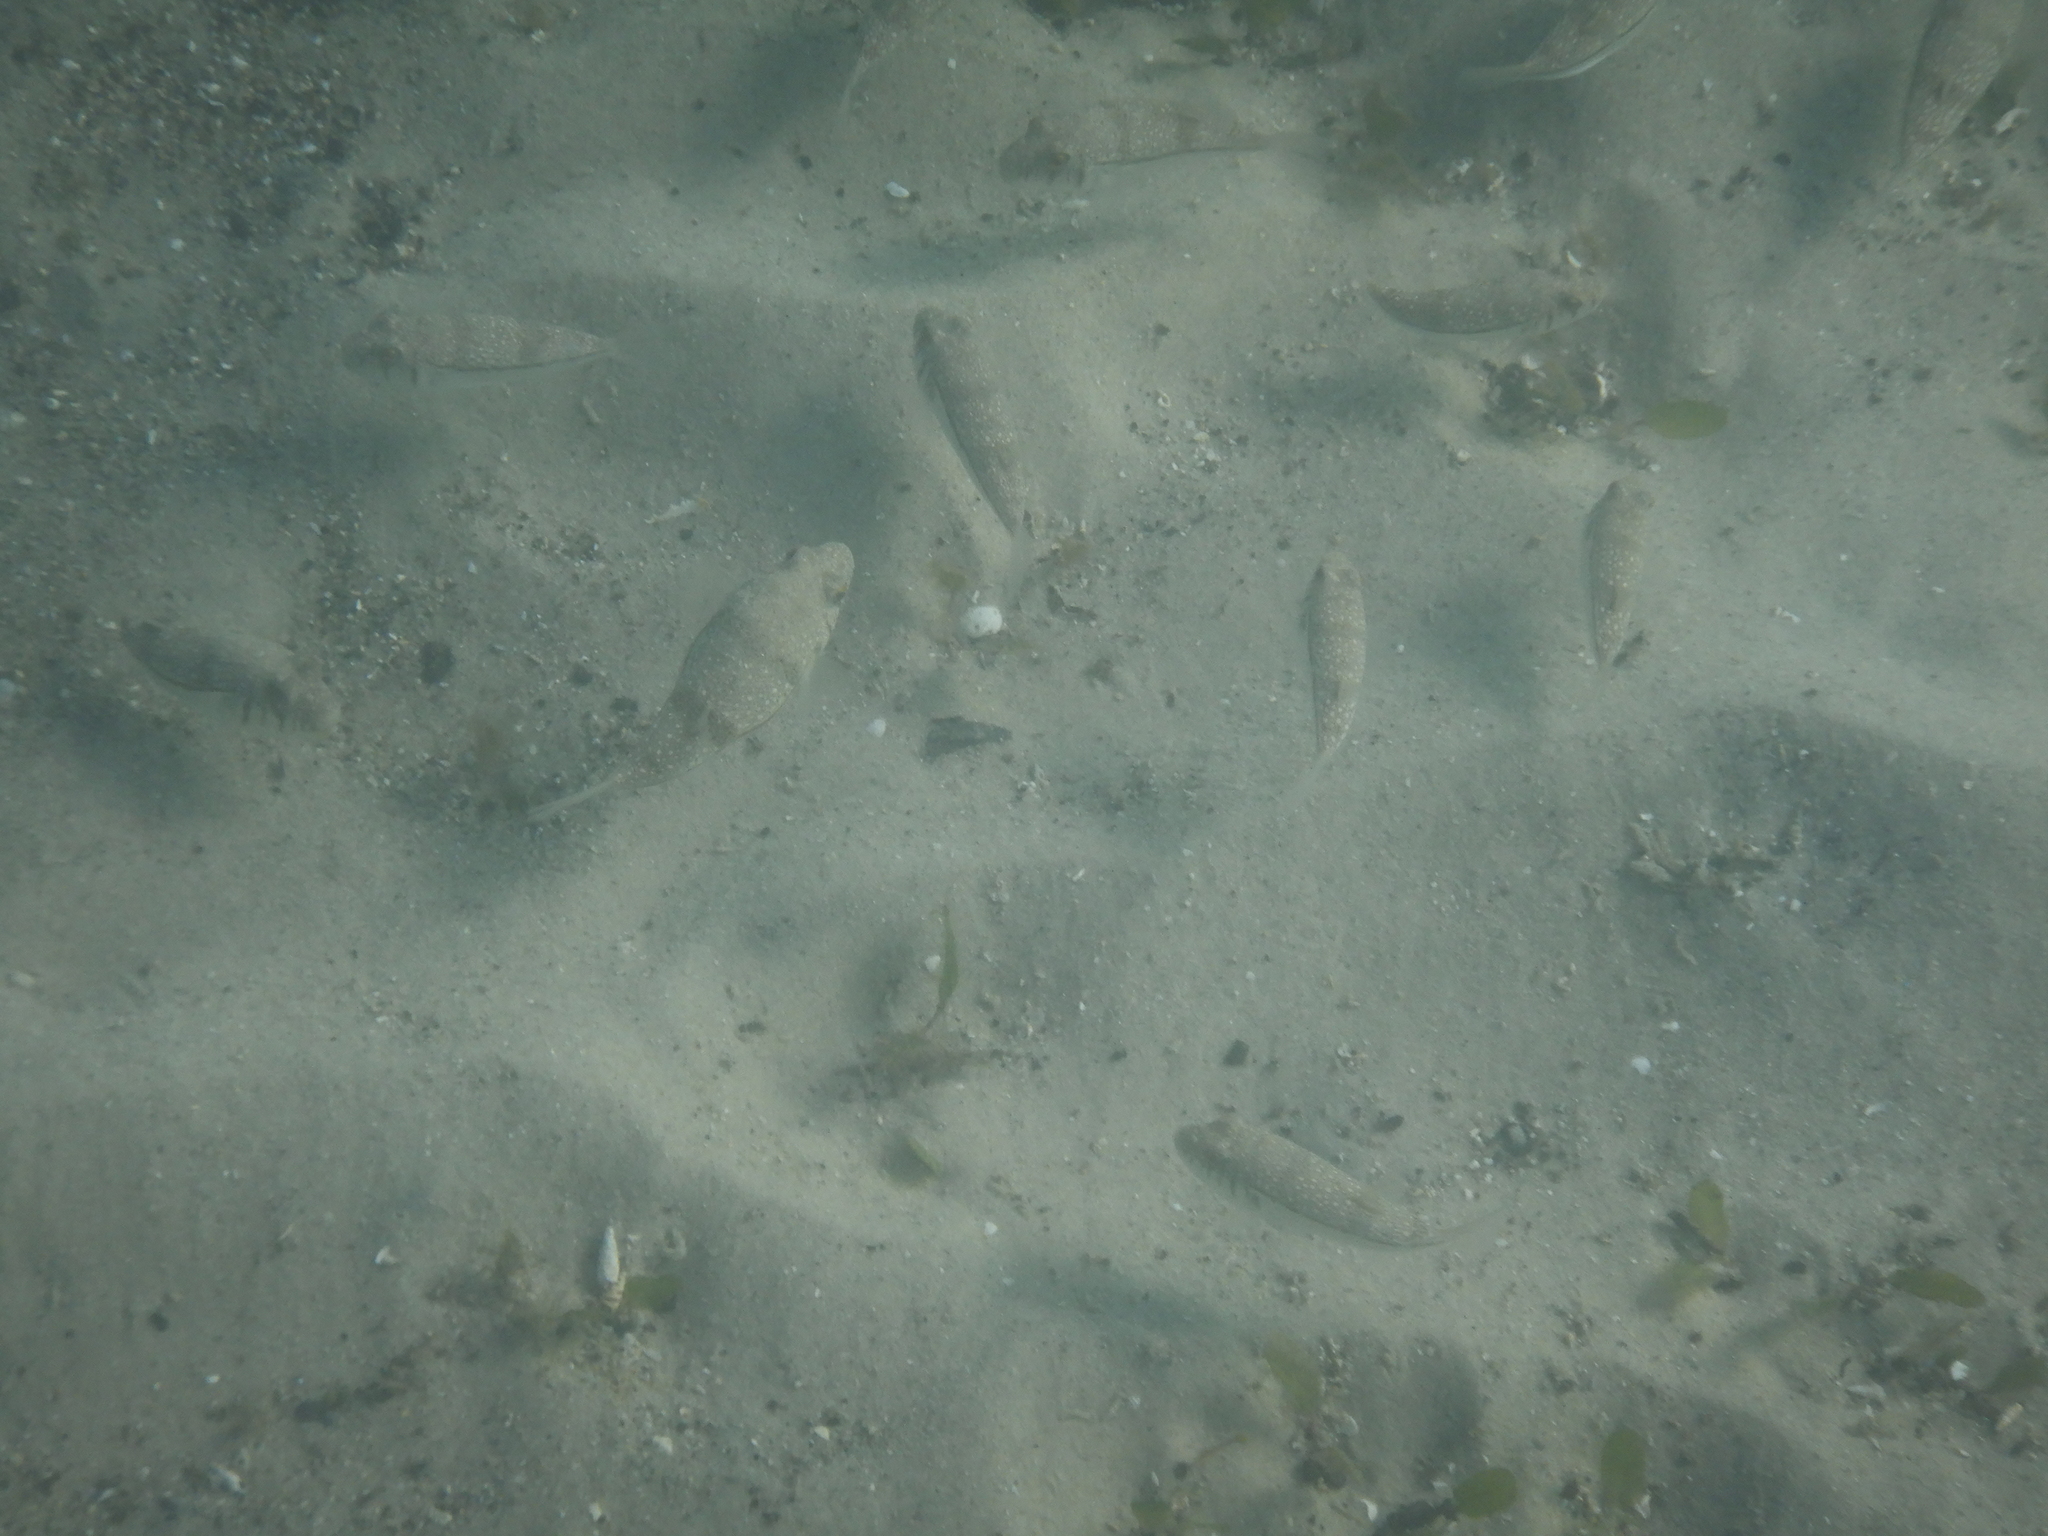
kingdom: Animalia
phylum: Chordata
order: Tetraodontiformes
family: Tetraodontidae
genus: Torquigener
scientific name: Torquigener pleurogramma
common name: Banded toadfish
